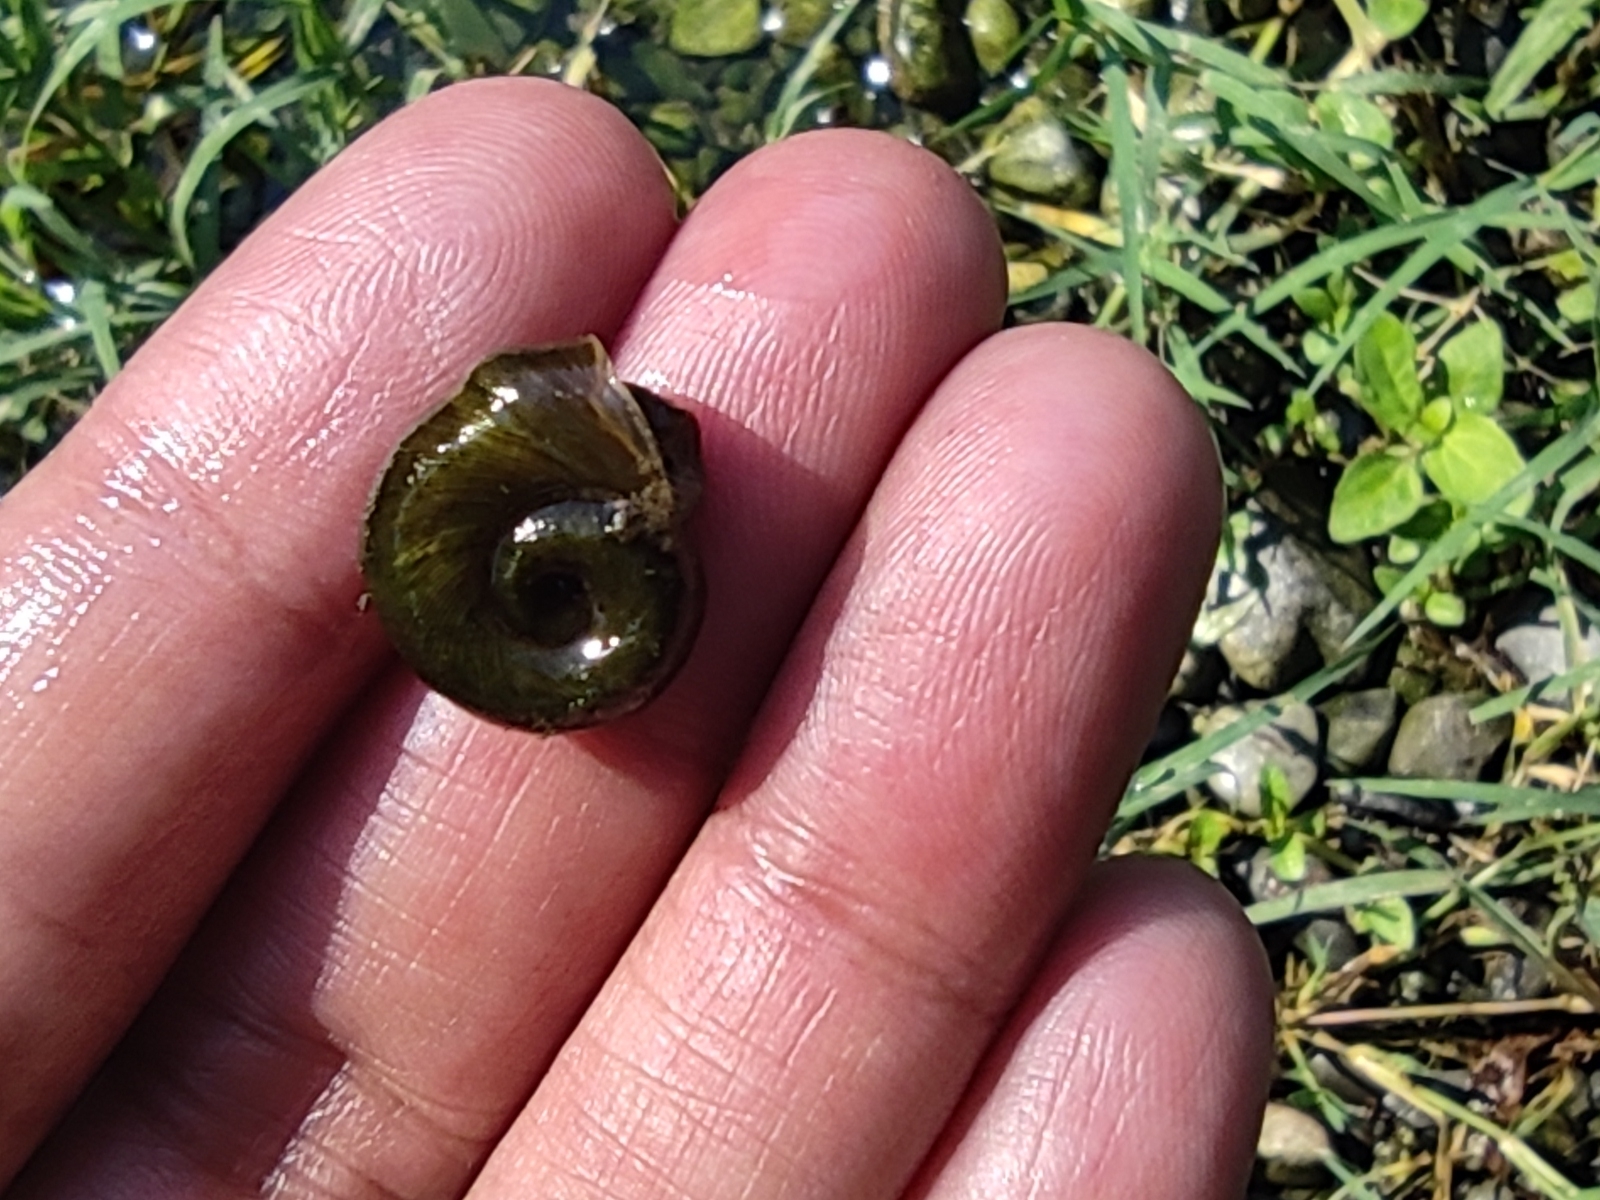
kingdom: Animalia
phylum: Mollusca
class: Gastropoda
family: Planorbidae
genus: Planorbella
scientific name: Planorbella trivolvis
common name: Marsh rams-horn
